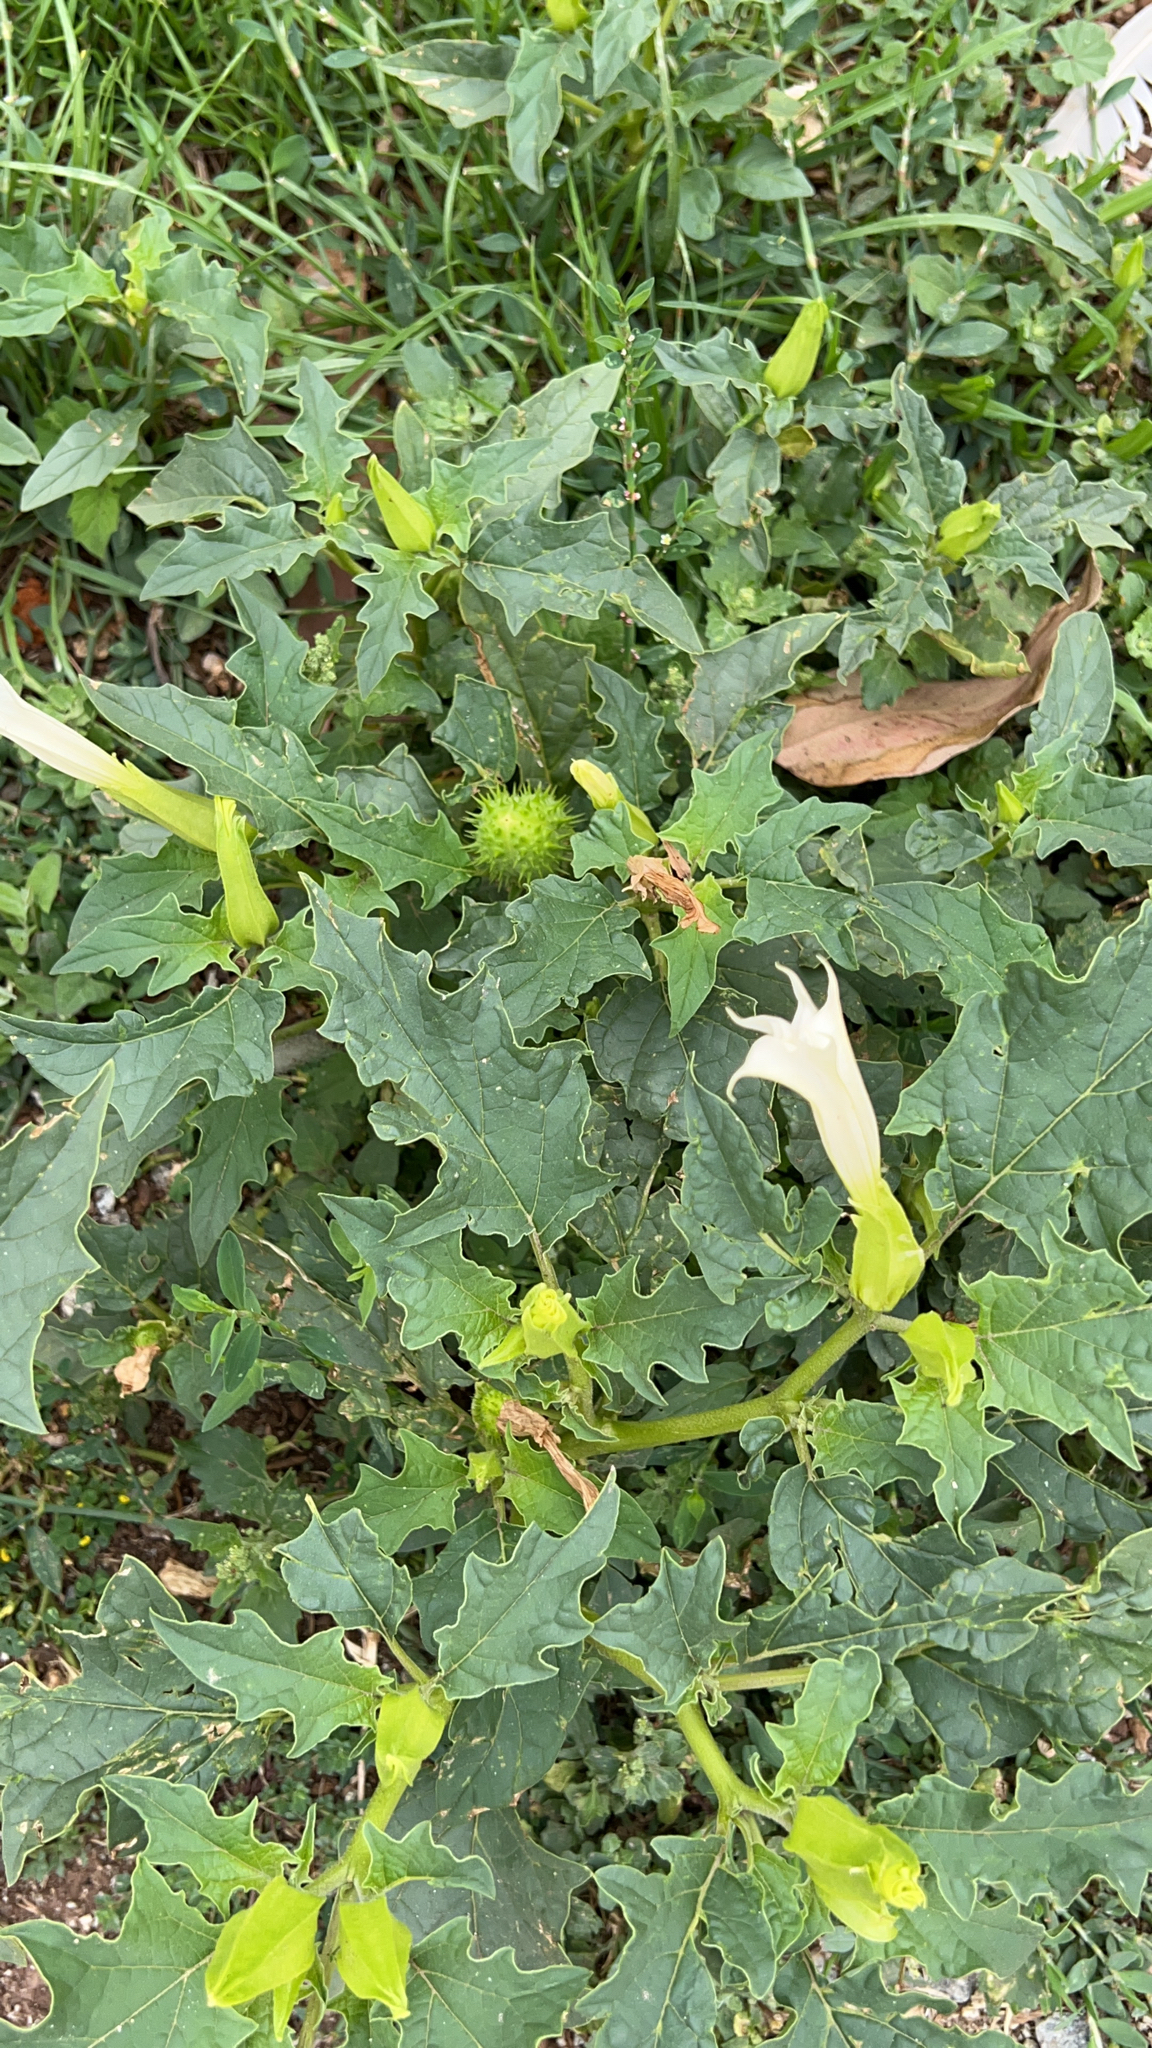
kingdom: Plantae
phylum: Tracheophyta
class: Magnoliopsida
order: Solanales
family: Solanaceae
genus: Datura
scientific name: Datura stramonium
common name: Thorn-apple
